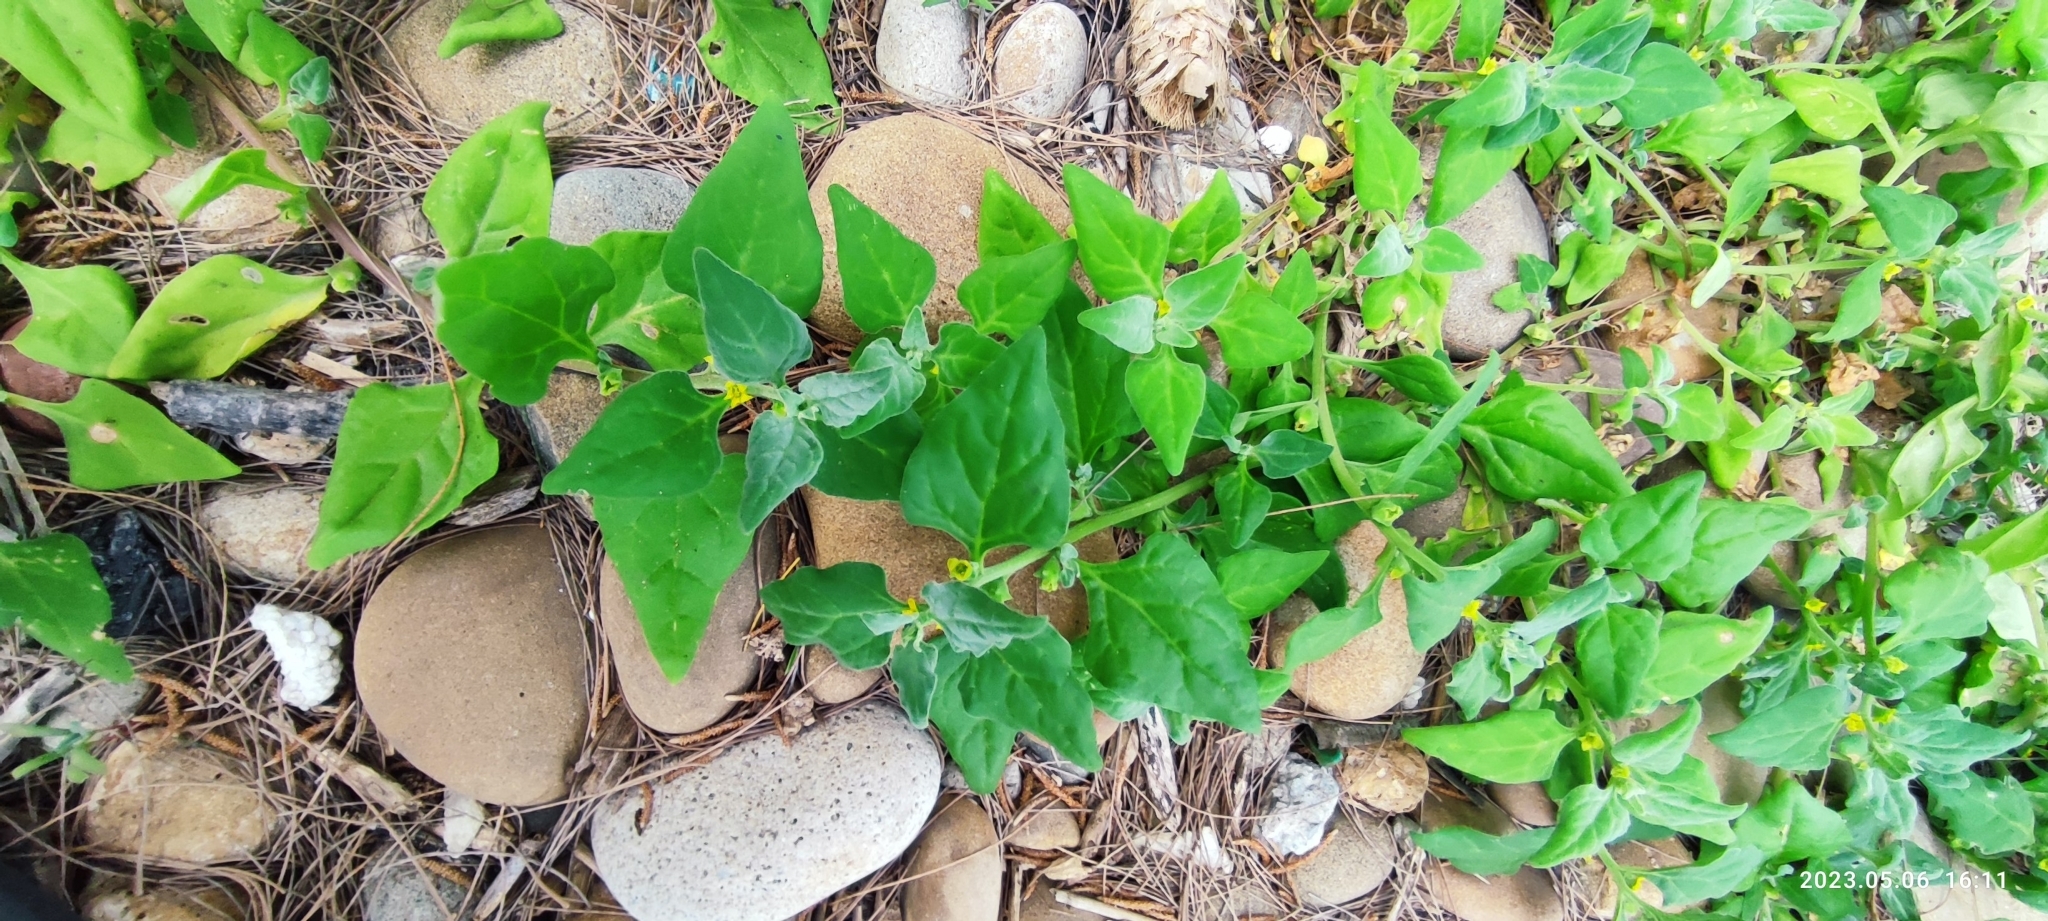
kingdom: Plantae
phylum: Tracheophyta
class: Magnoliopsida
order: Caryophyllales
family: Aizoaceae
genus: Tetragonia
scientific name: Tetragonia tetragonoides
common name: New zealand-spinach
